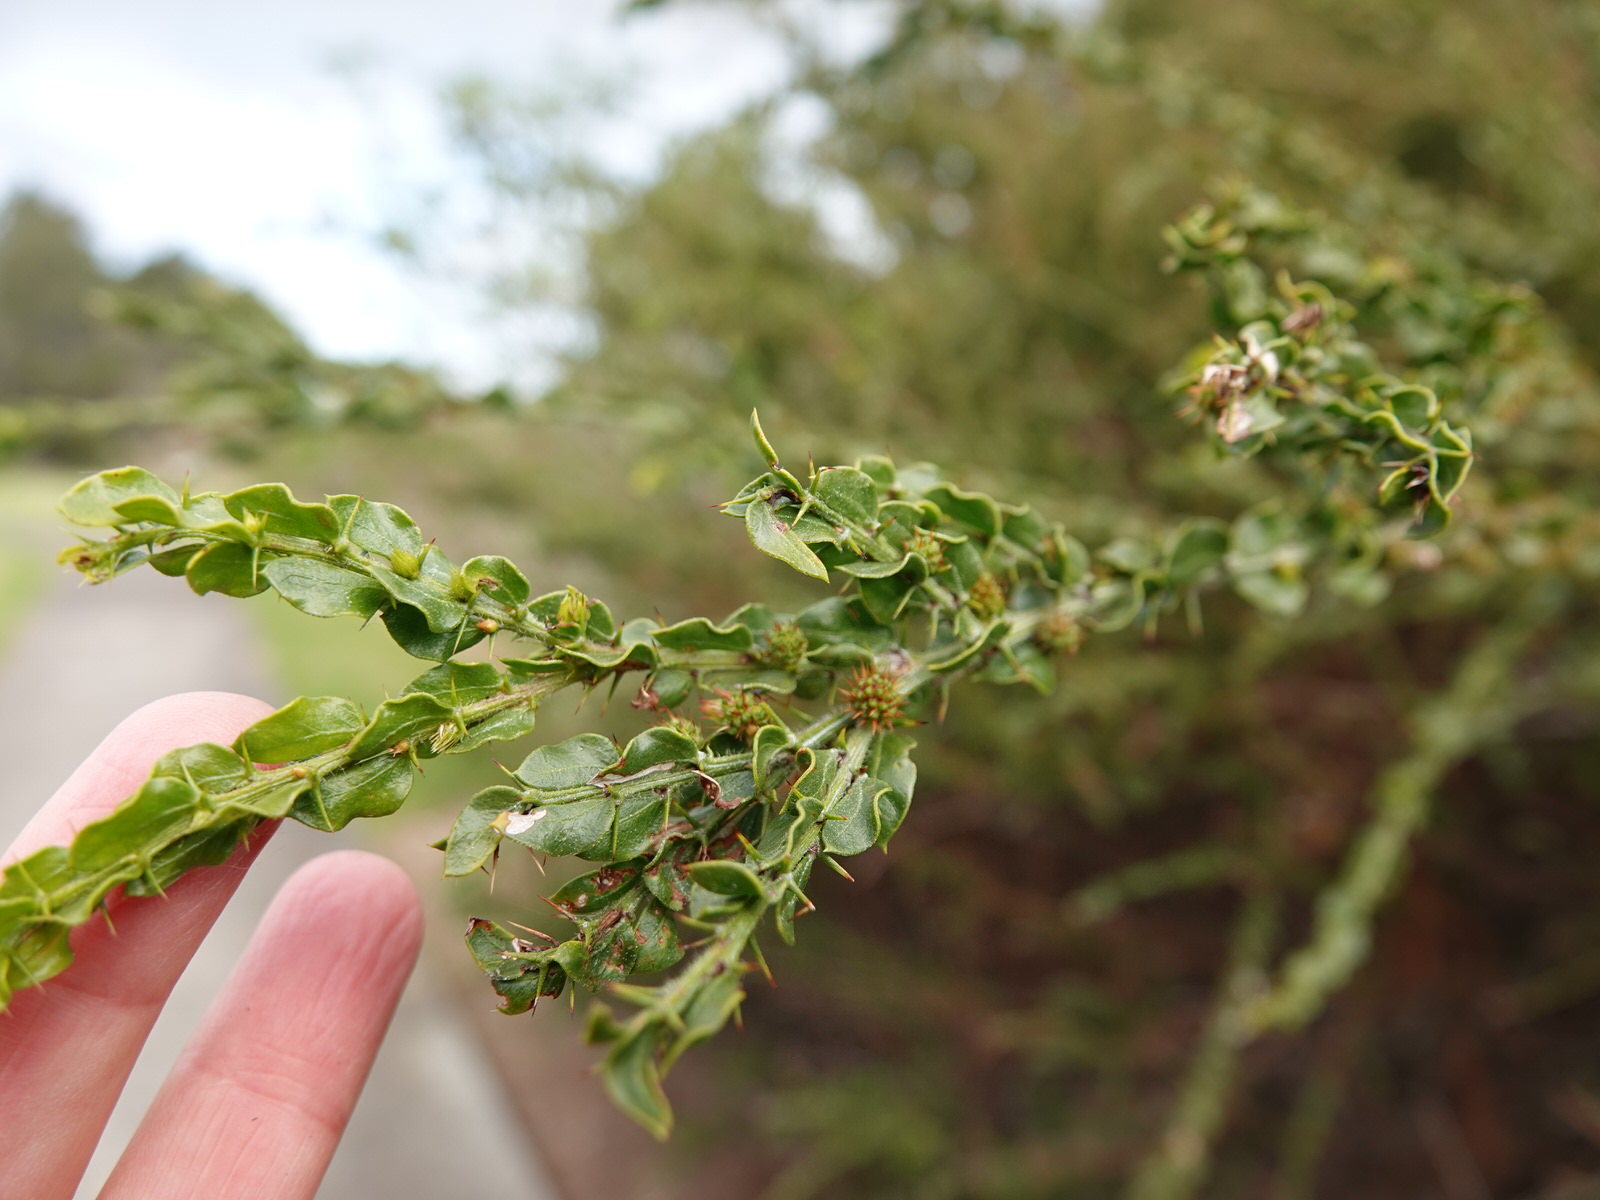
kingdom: Plantae
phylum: Tracheophyta
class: Magnoliopsida
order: Fabales
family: Fabaceae
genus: Acacia
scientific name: Acacia paradoxa
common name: Paradox acacia
